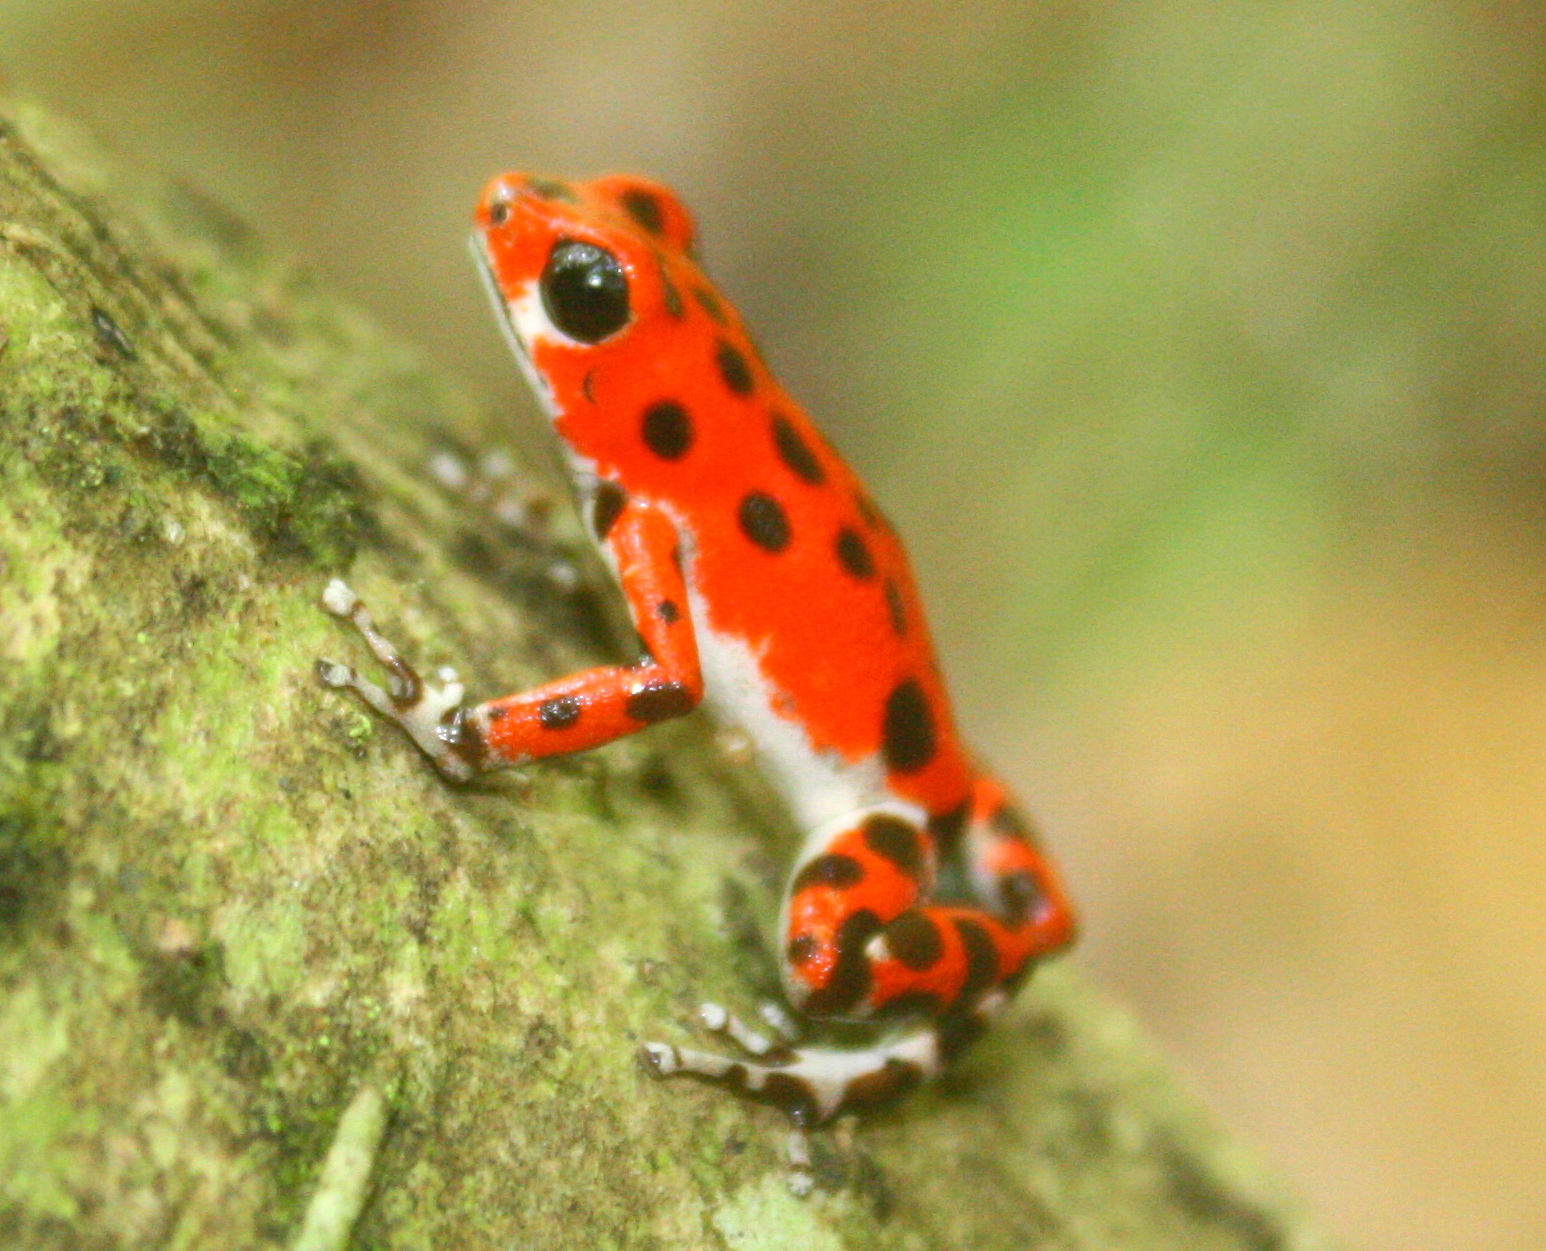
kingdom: Animalia
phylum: Chordata
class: Amphibia
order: Anura
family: Dendrobatidae
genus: Oophaga
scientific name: Oophaga pumilio
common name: Flaming poison frog
